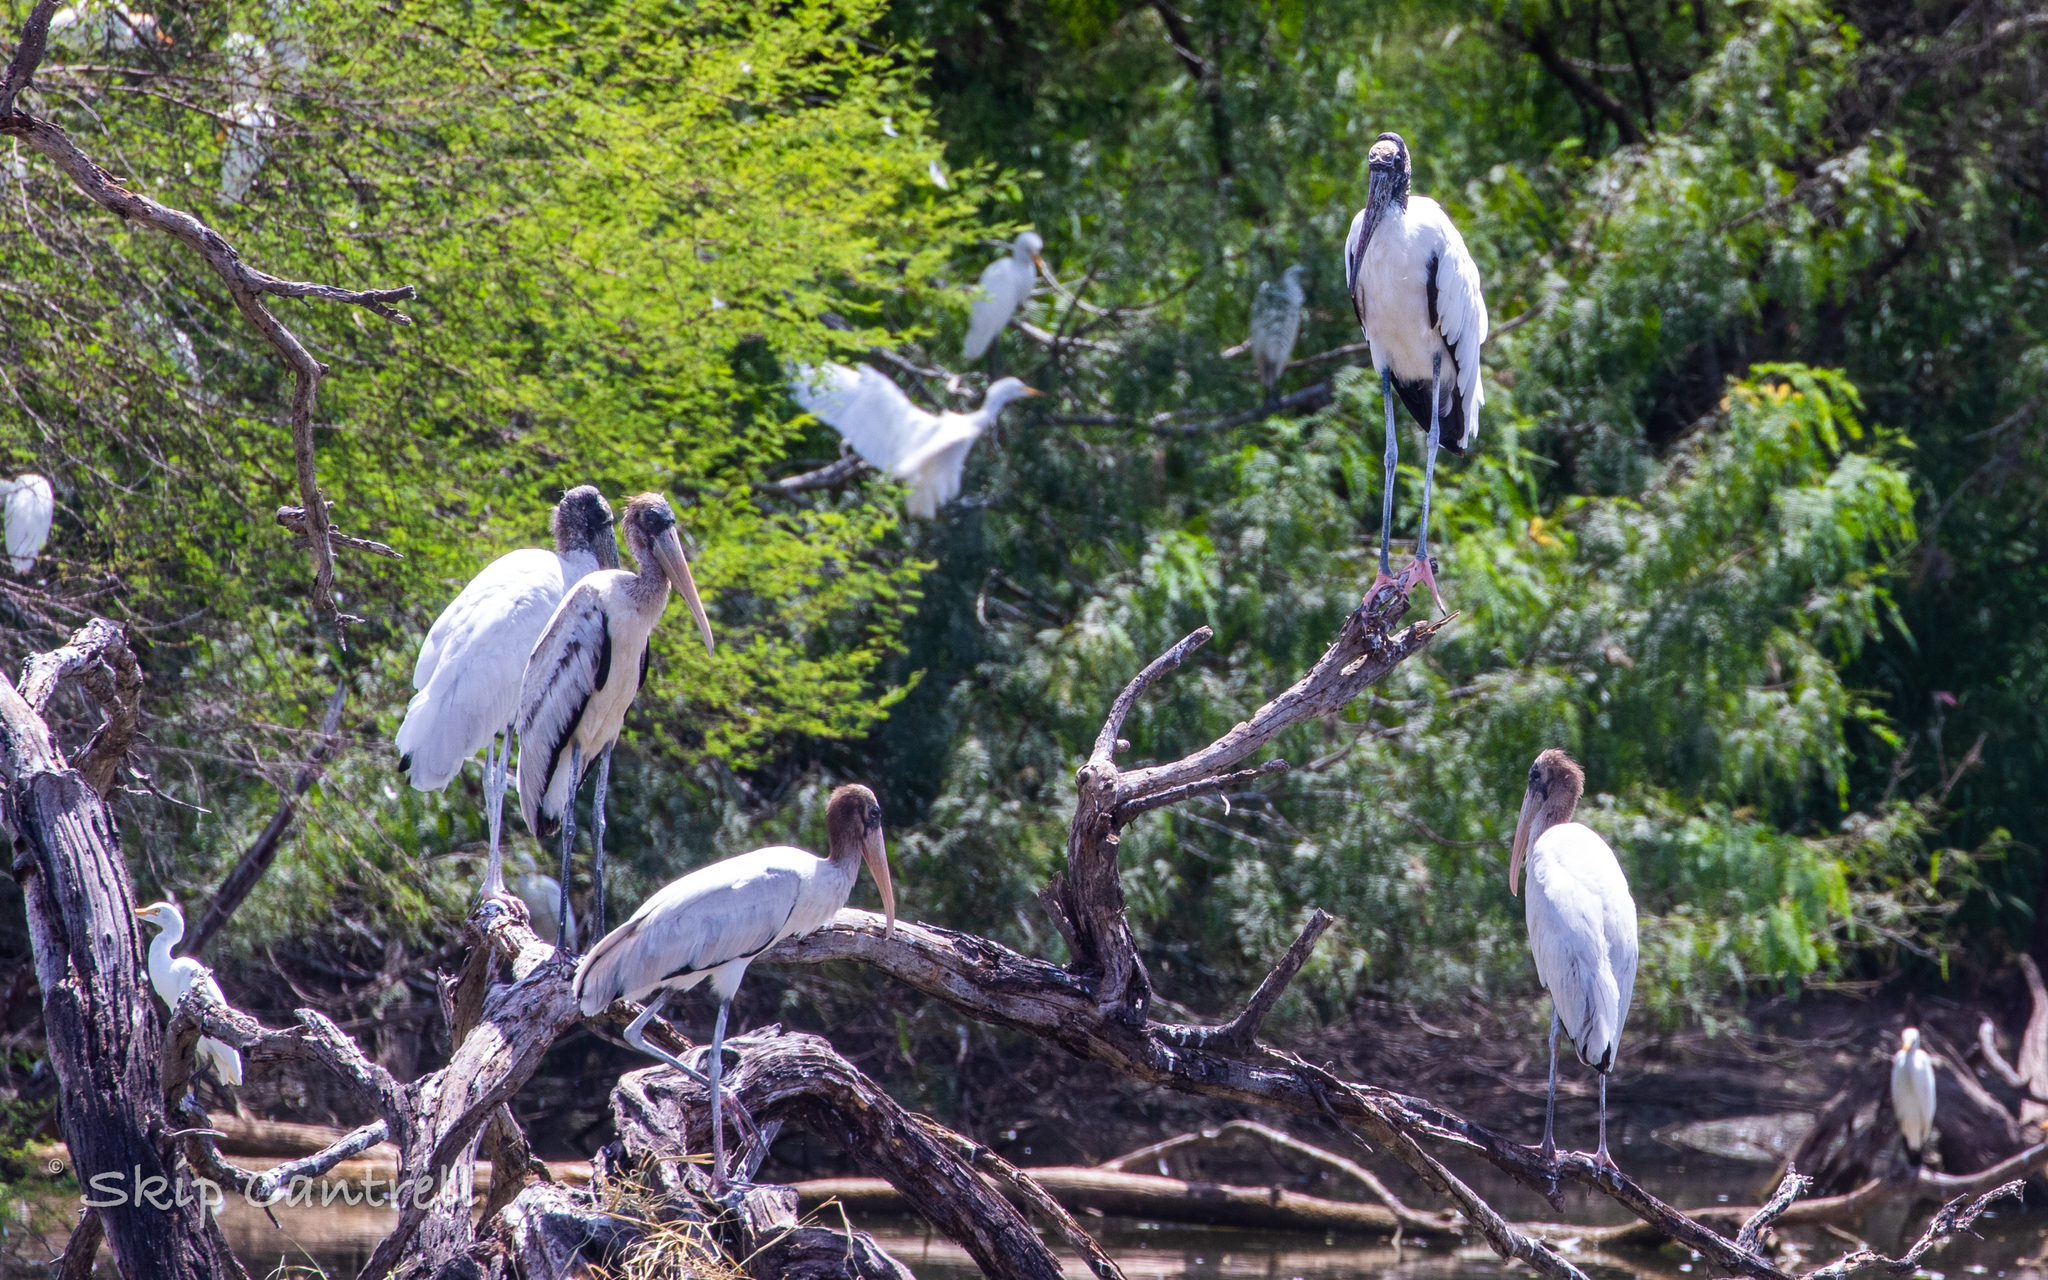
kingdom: Animalia
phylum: Chordata
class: Aves
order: Ciconiiformes
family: Ciconiidae
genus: Mycteria
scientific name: Mycteria americana
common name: Wood stork
